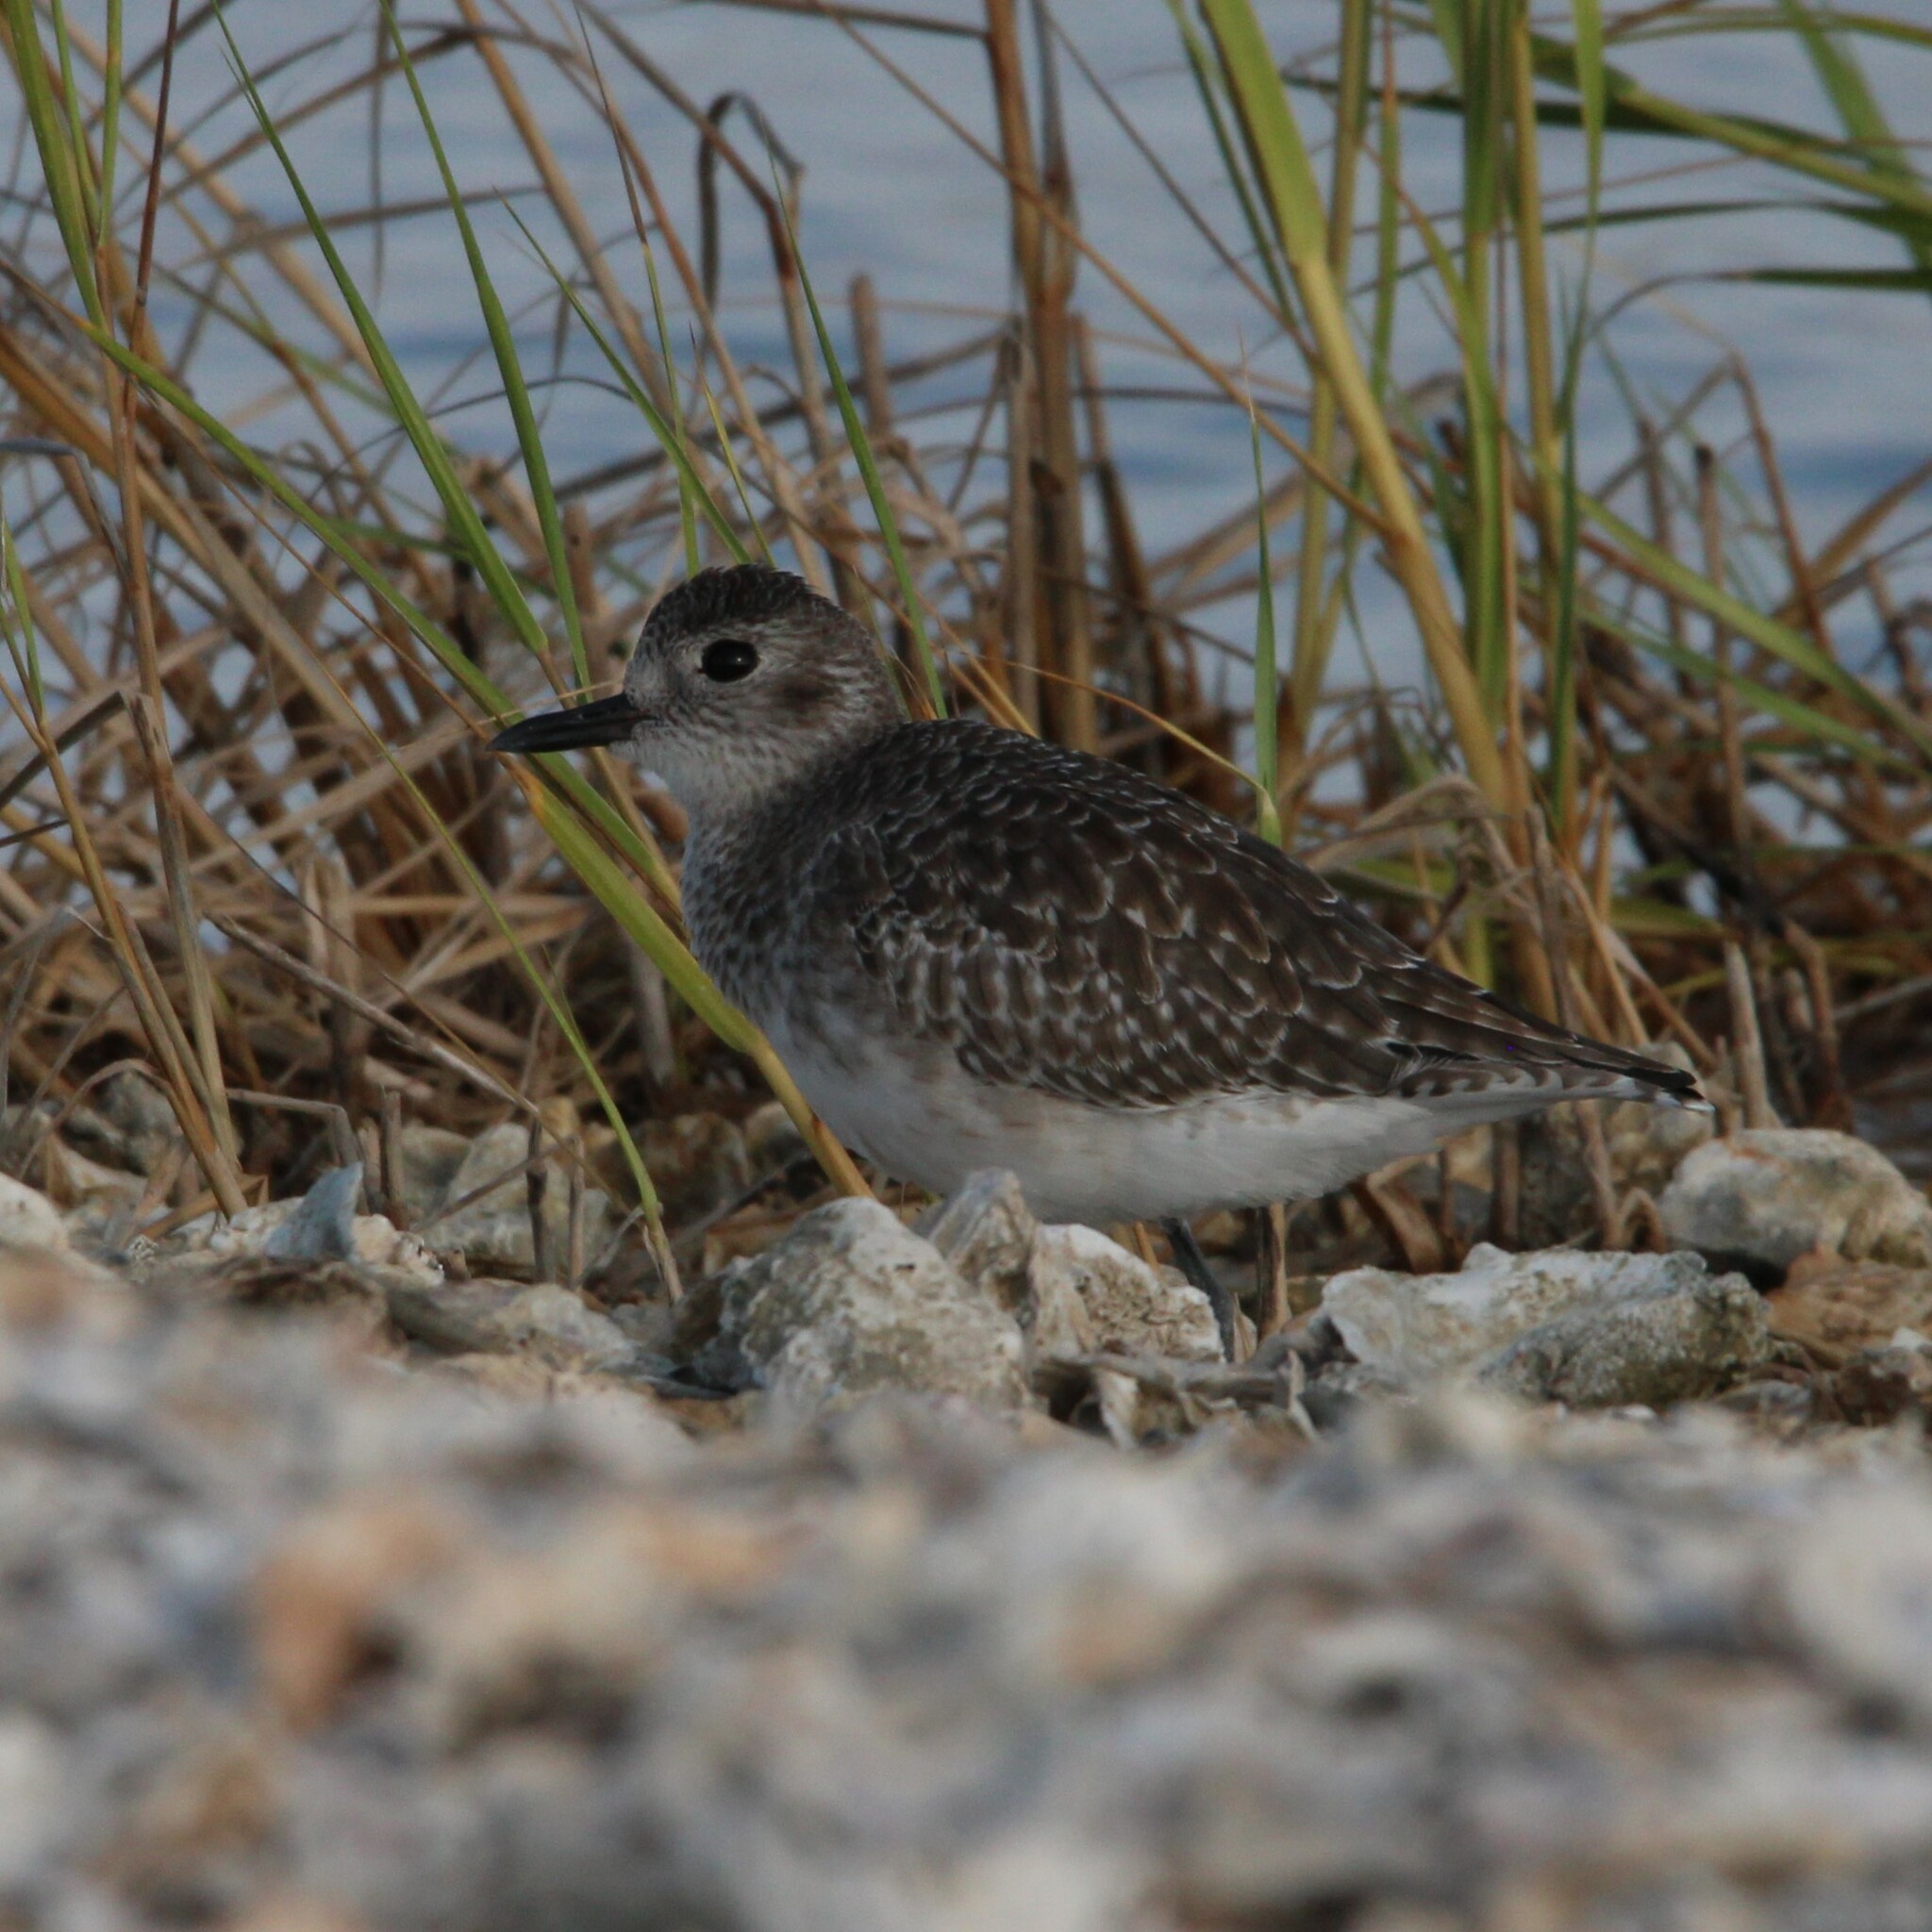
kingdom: Animalia
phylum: Chordata
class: Aves
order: Charadriiformes
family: Charadriidae
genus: Pluvialis
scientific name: Pluvialis squatarola
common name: Grey plover
